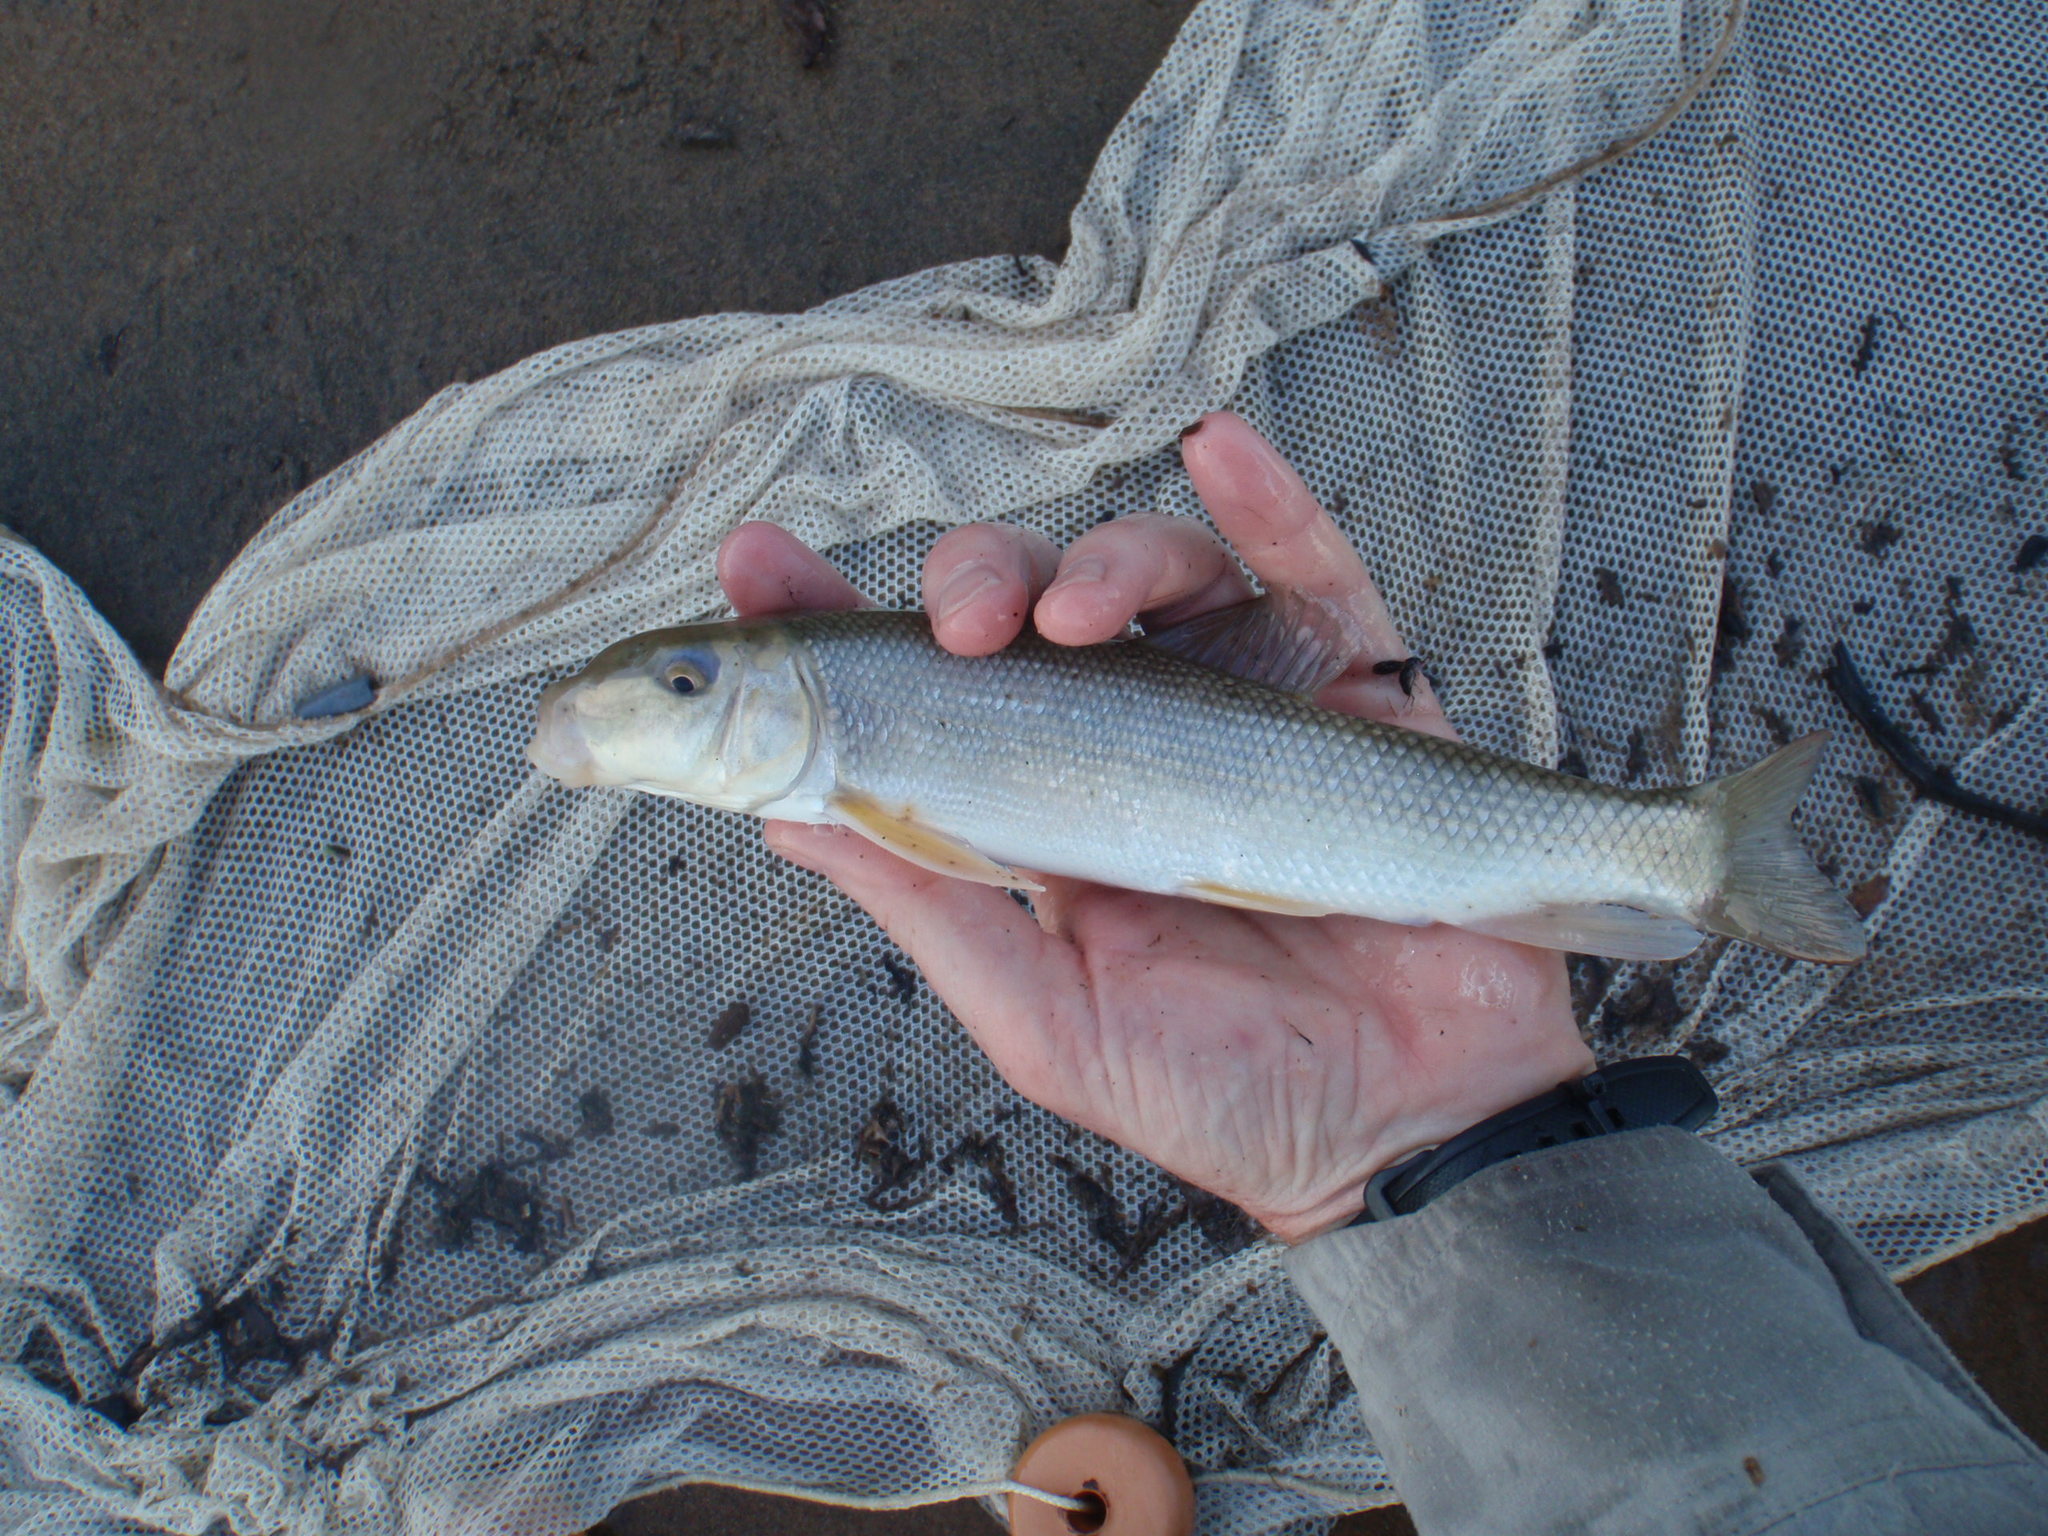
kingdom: Animalia
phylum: Chordata
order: Cypriniformes
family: Catostomidae
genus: Catostomus
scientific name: Catostomus commersonii
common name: White sucker
